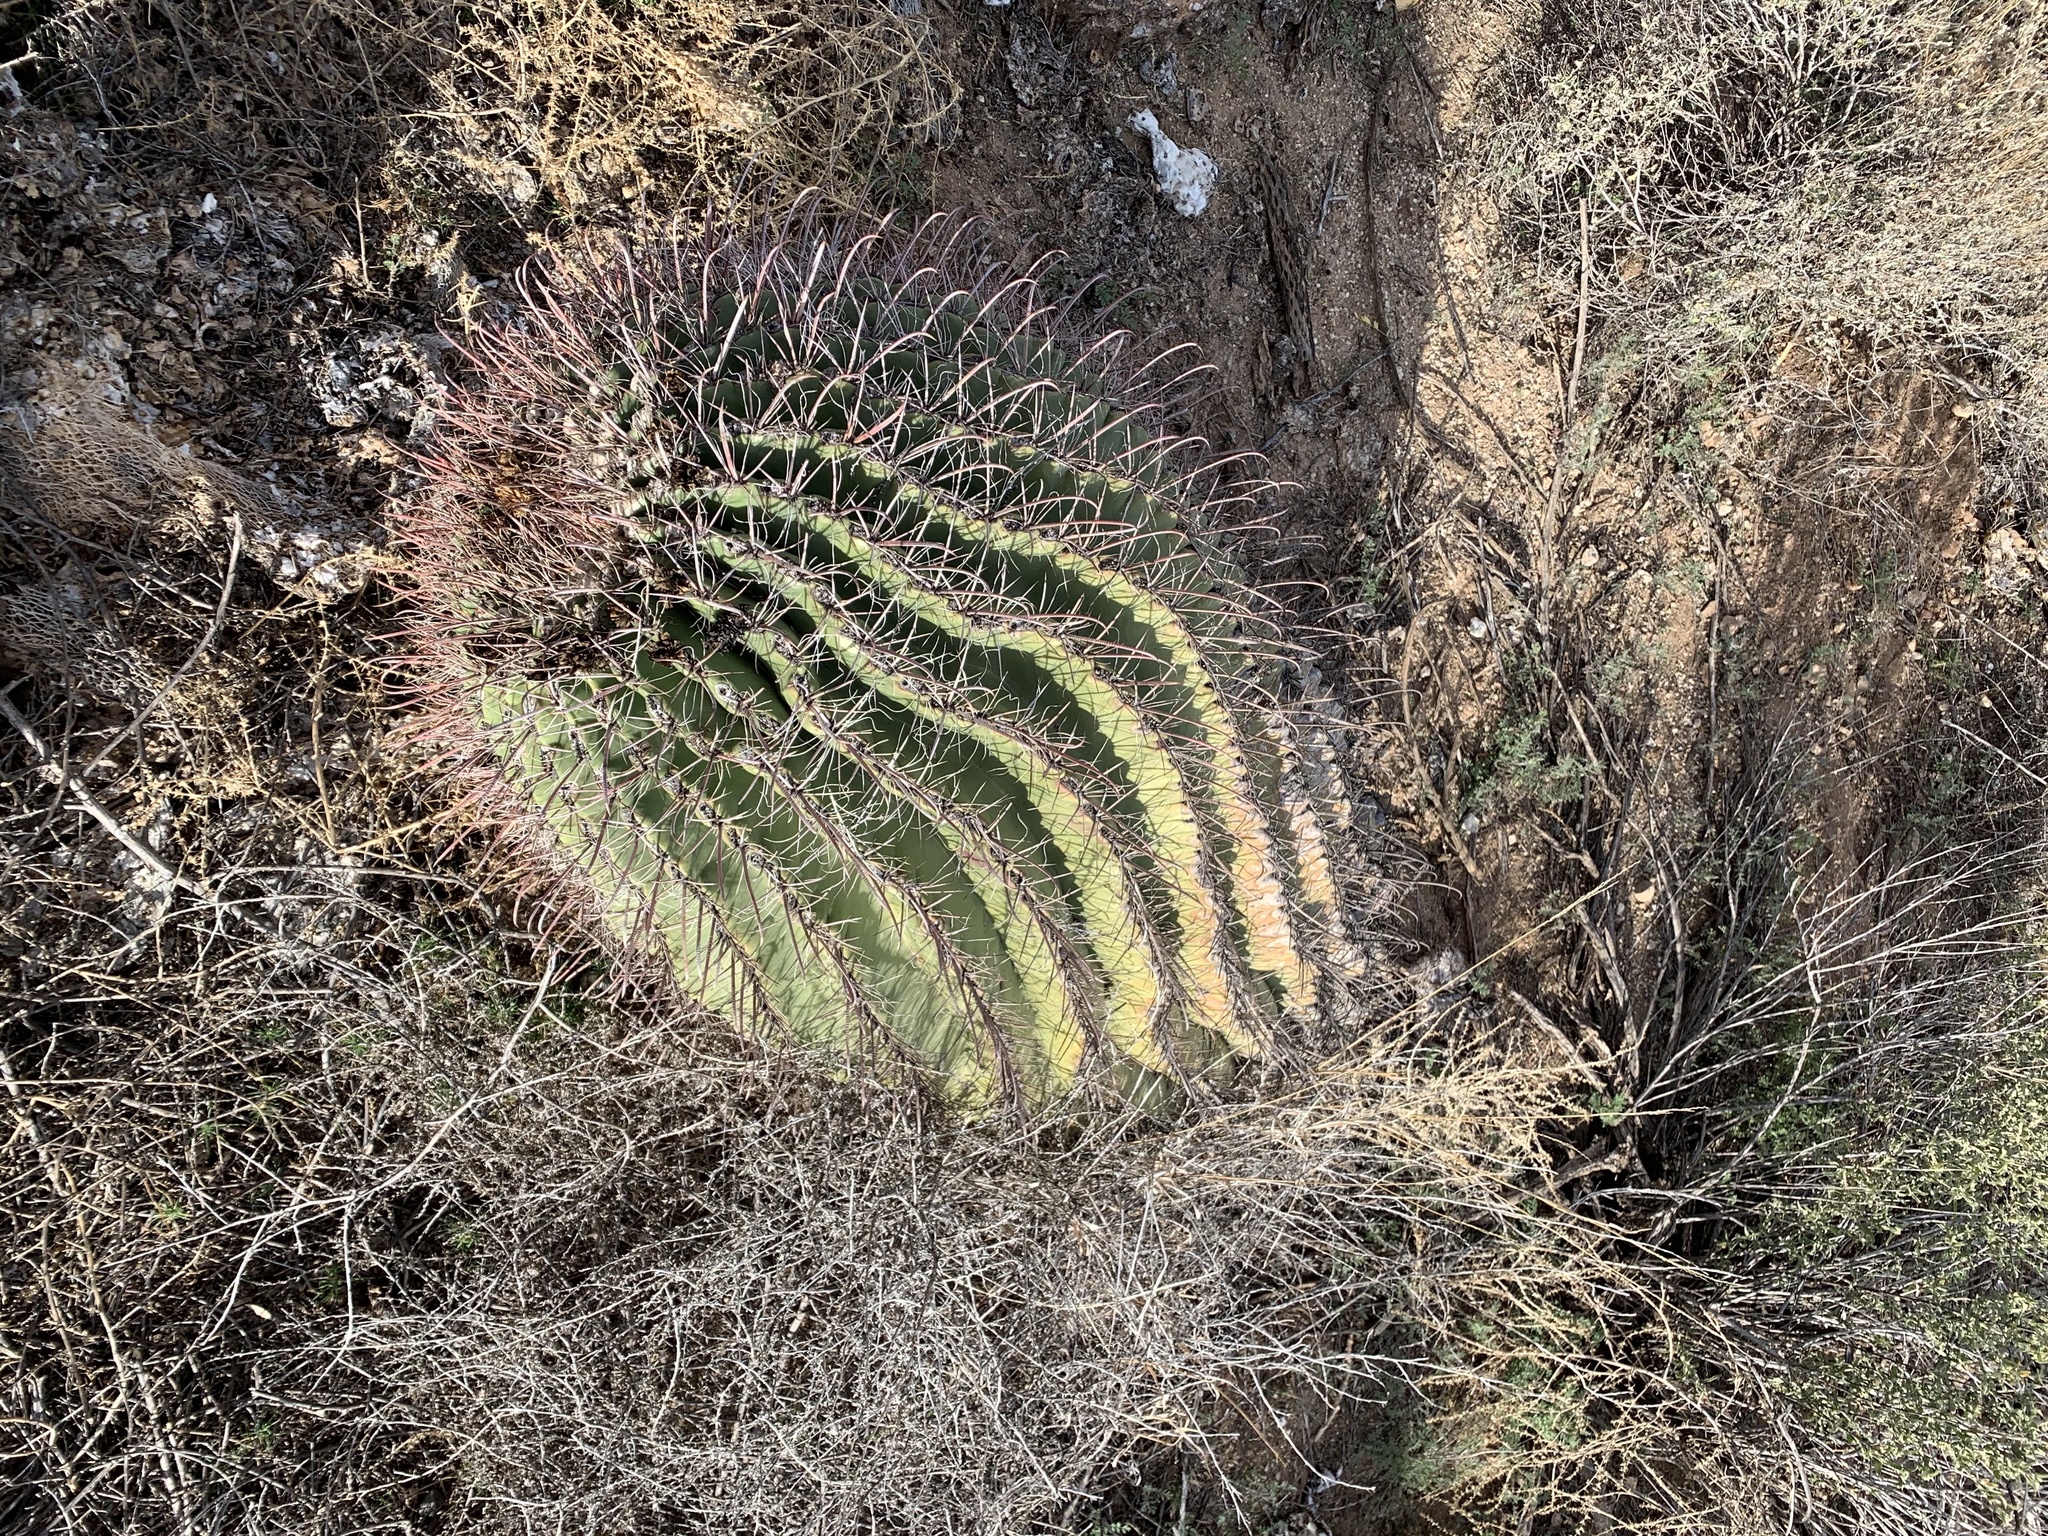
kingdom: Plantae
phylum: Tracheophyta
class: Magnoliopsida
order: Caryophyllales
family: Cactaceae
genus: Ferocactus
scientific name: Ferocactus wislizeni
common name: Candy barrel cactus
